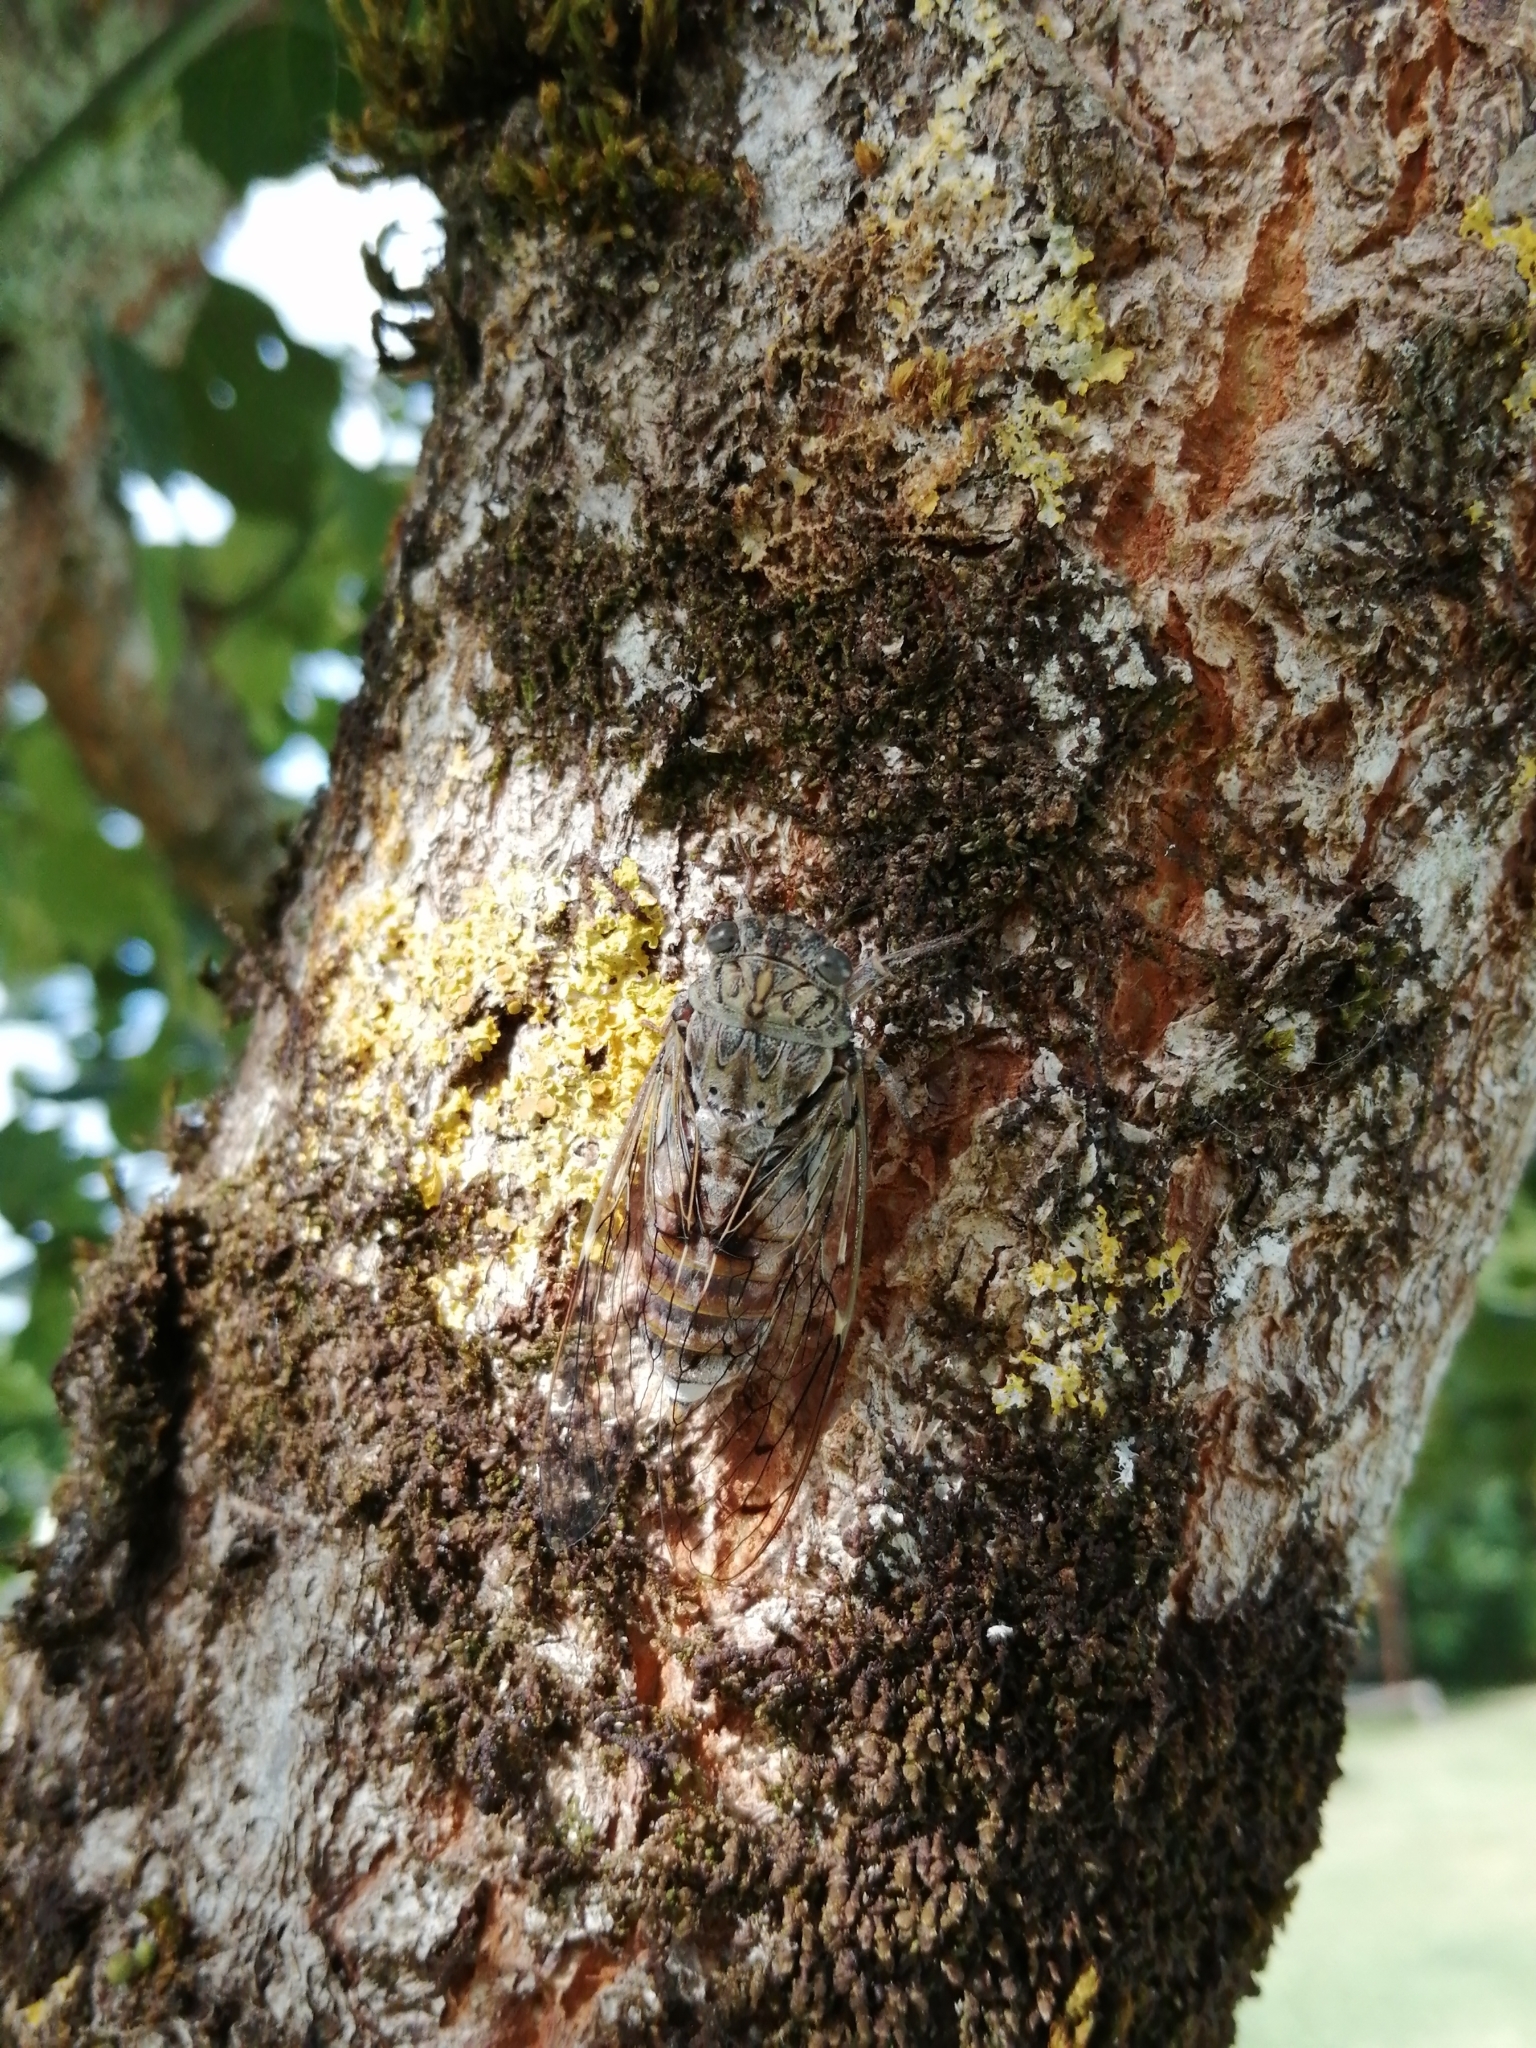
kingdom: Animalia
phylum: Arthropoda
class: Insecta
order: Hemiptera
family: Cicadidae
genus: Cicada
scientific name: Cicada orni
